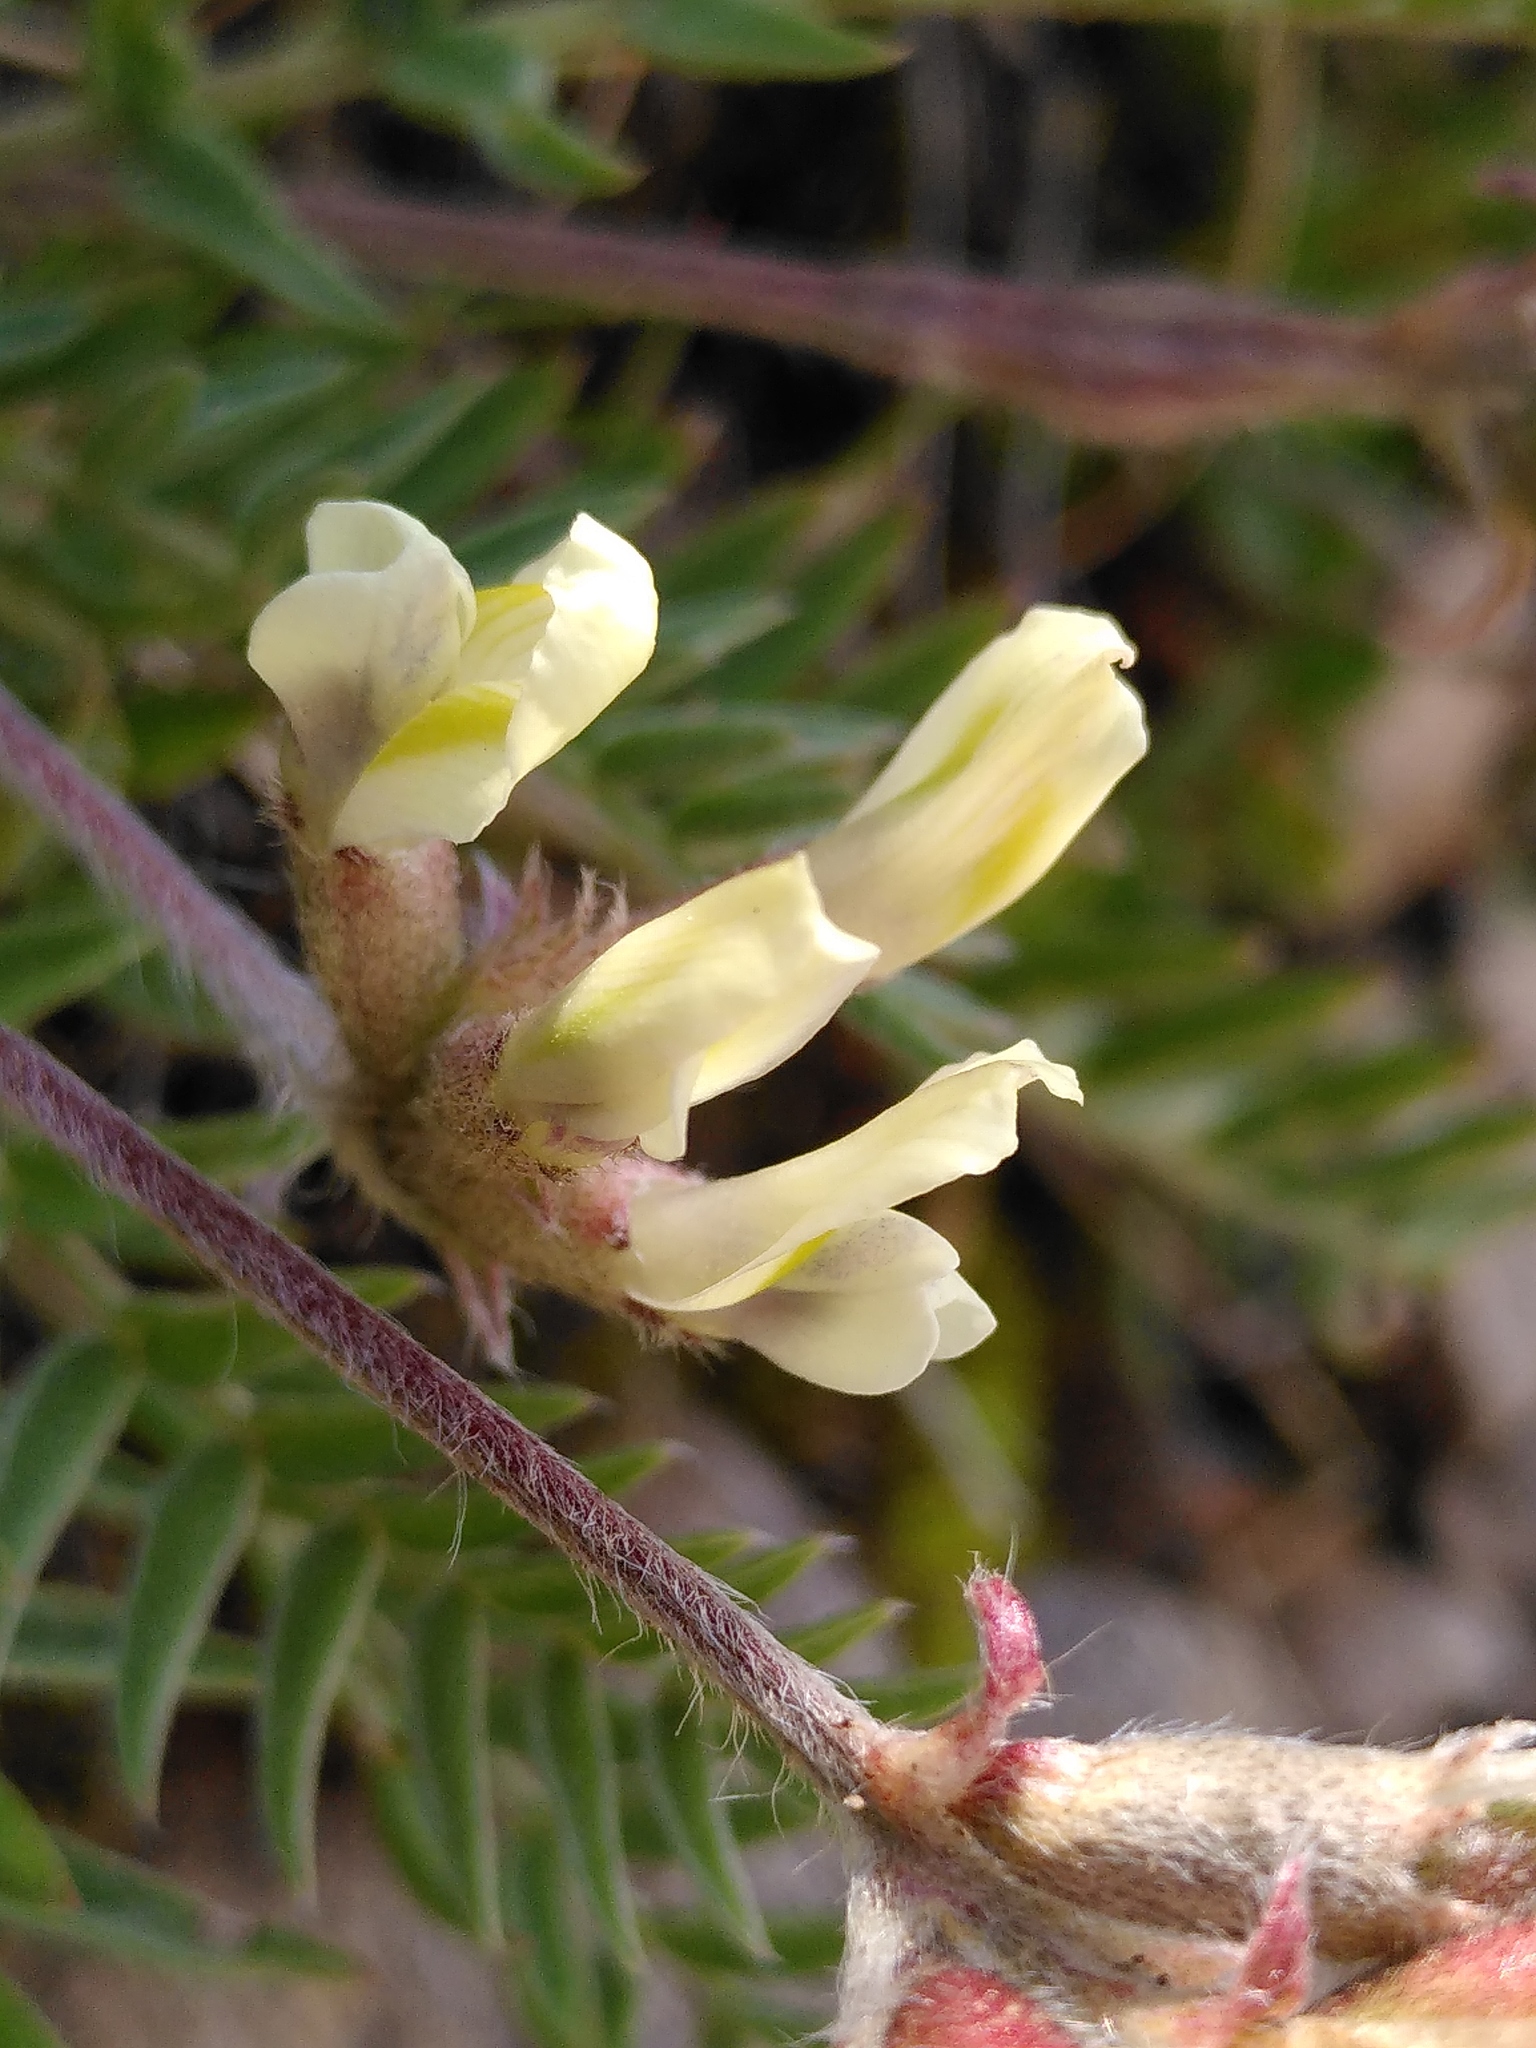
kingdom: Plantae
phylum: Tracheophyta
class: Magnoliopsida
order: Fabales
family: Fabaceae
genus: Oxytropis
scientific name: Oxytropis campestris
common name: Field locoweed
